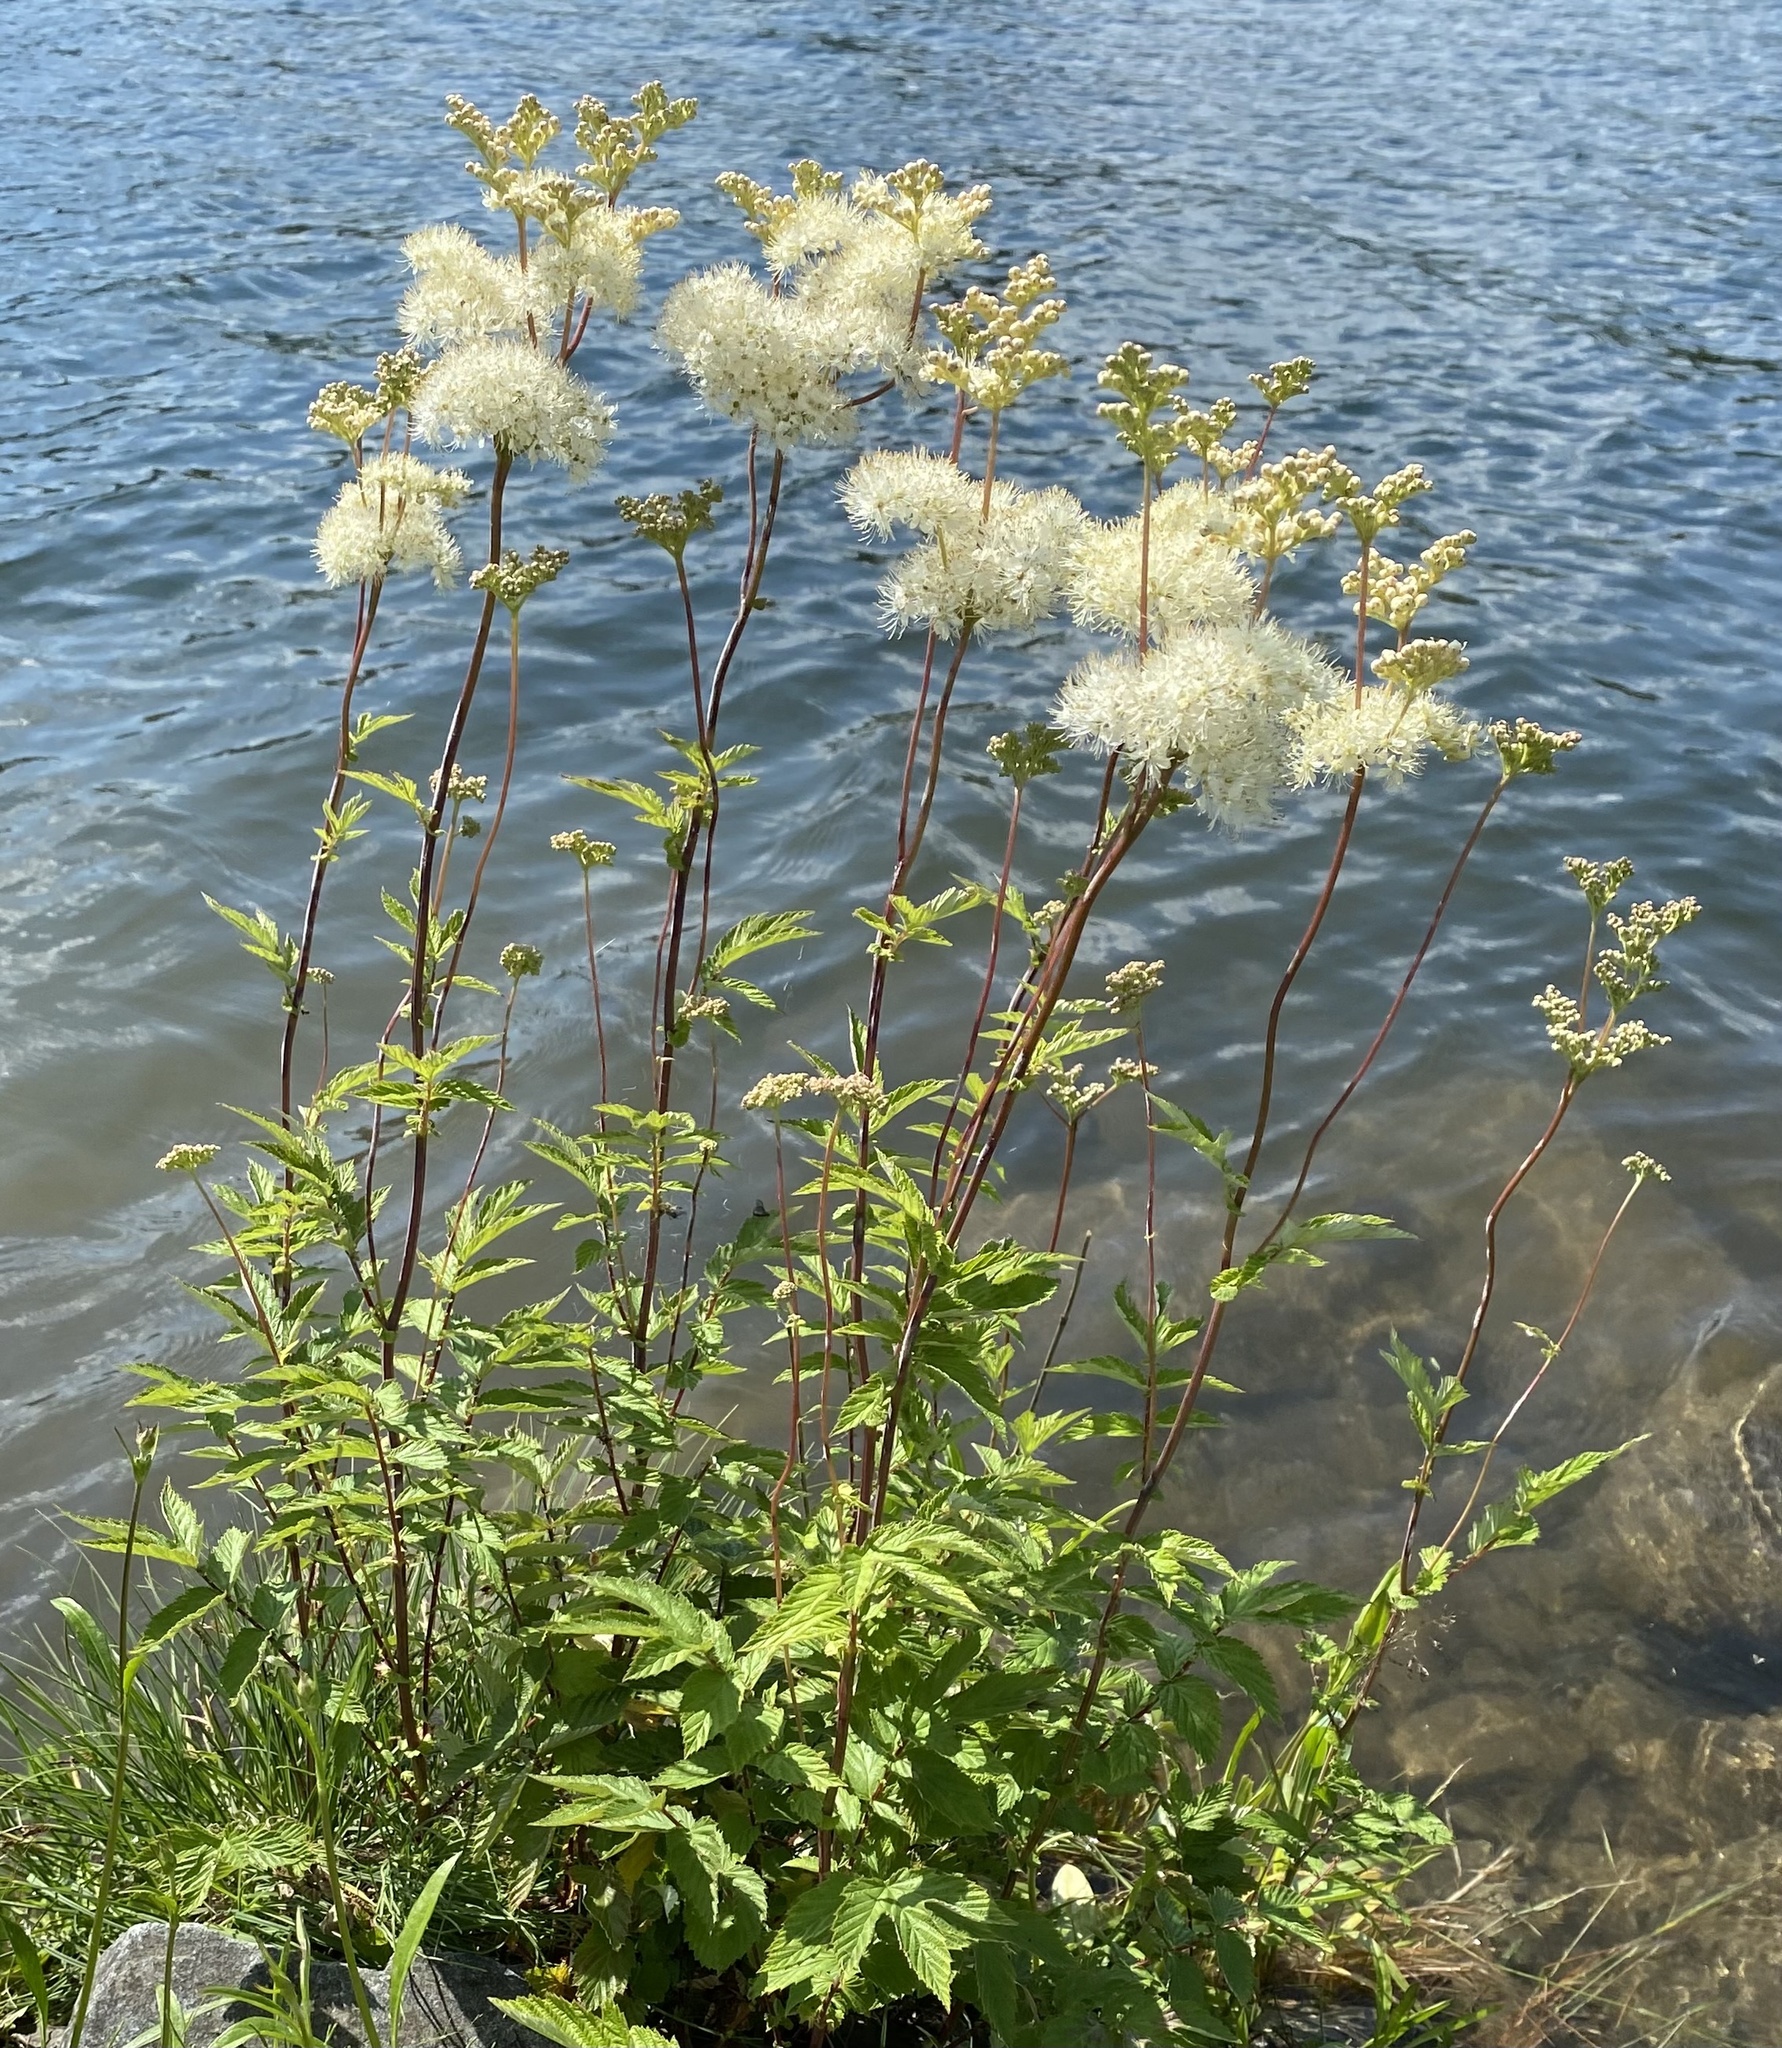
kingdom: Plantae
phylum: Tracheophyta
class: Magnoliopsida
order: Rosales
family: Rosaceae
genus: Filipendula
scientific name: Filipendula ulmaria
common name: Meadowsweet
